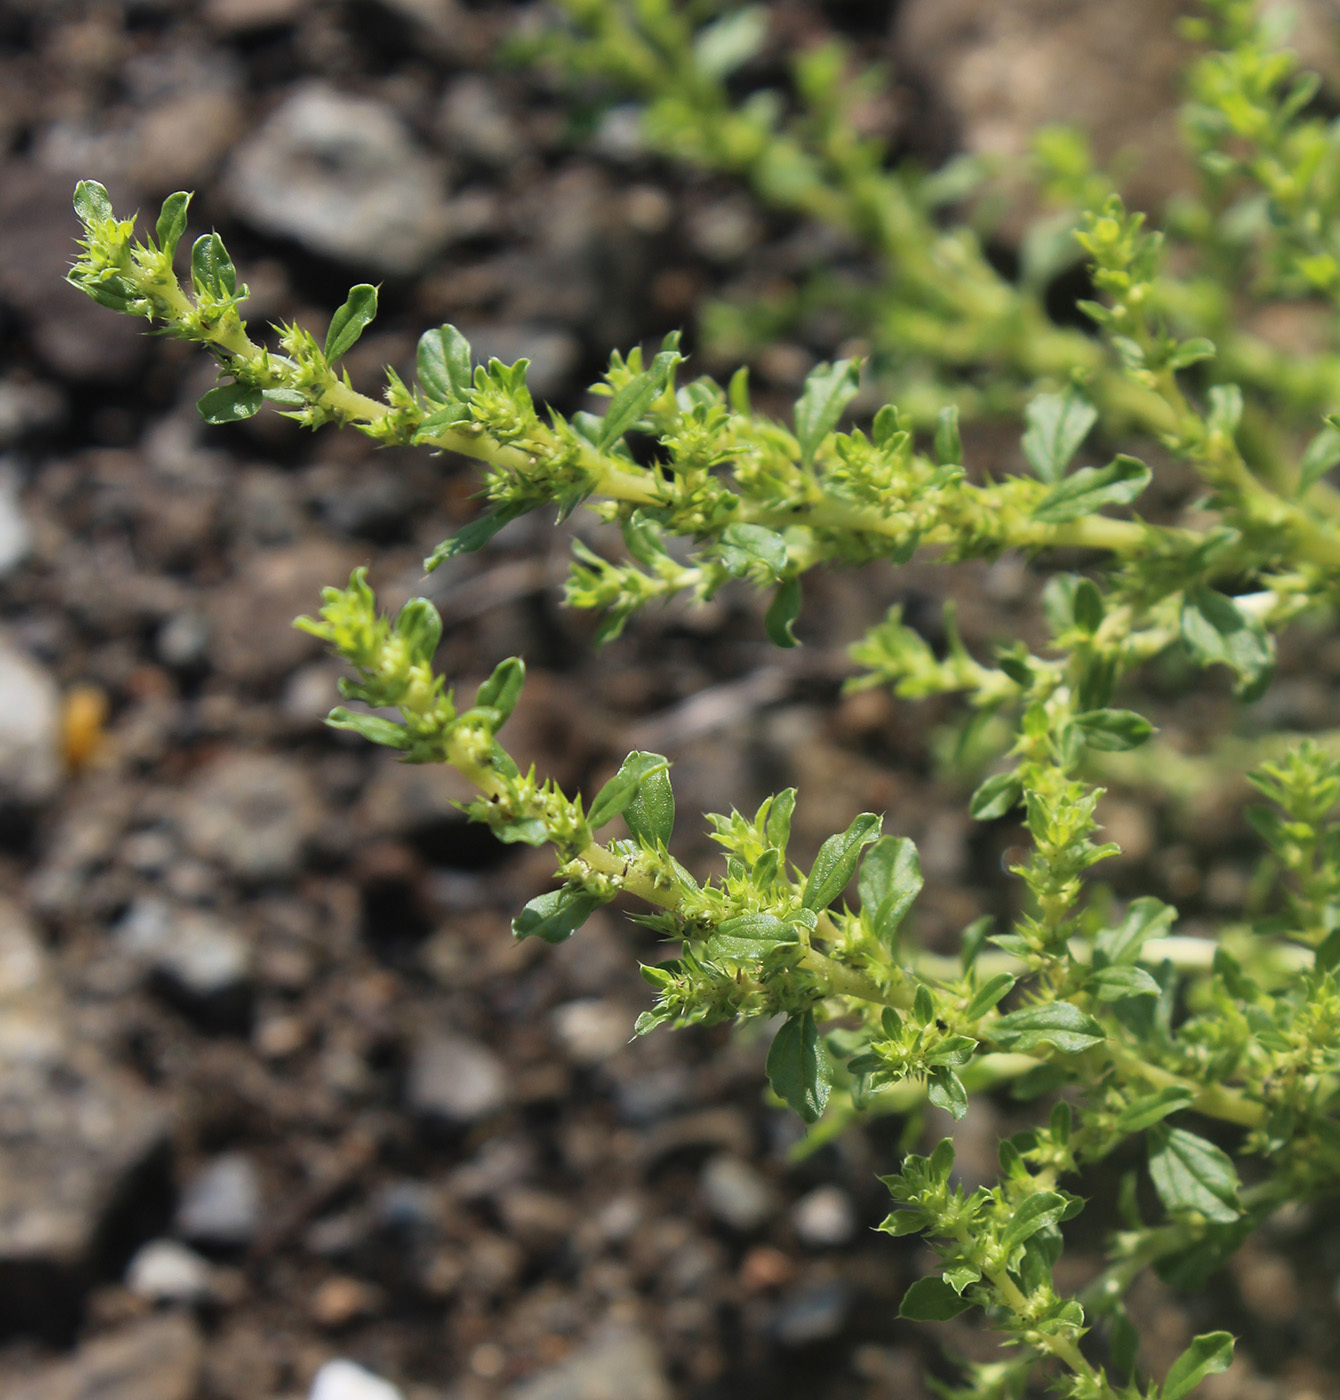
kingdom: Plantae
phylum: Tracheophyta
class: Magnoliopsida
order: Caryophyllales
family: Amaranthaceae
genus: Amaranthus
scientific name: Amaranthus albus
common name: White pigweed
